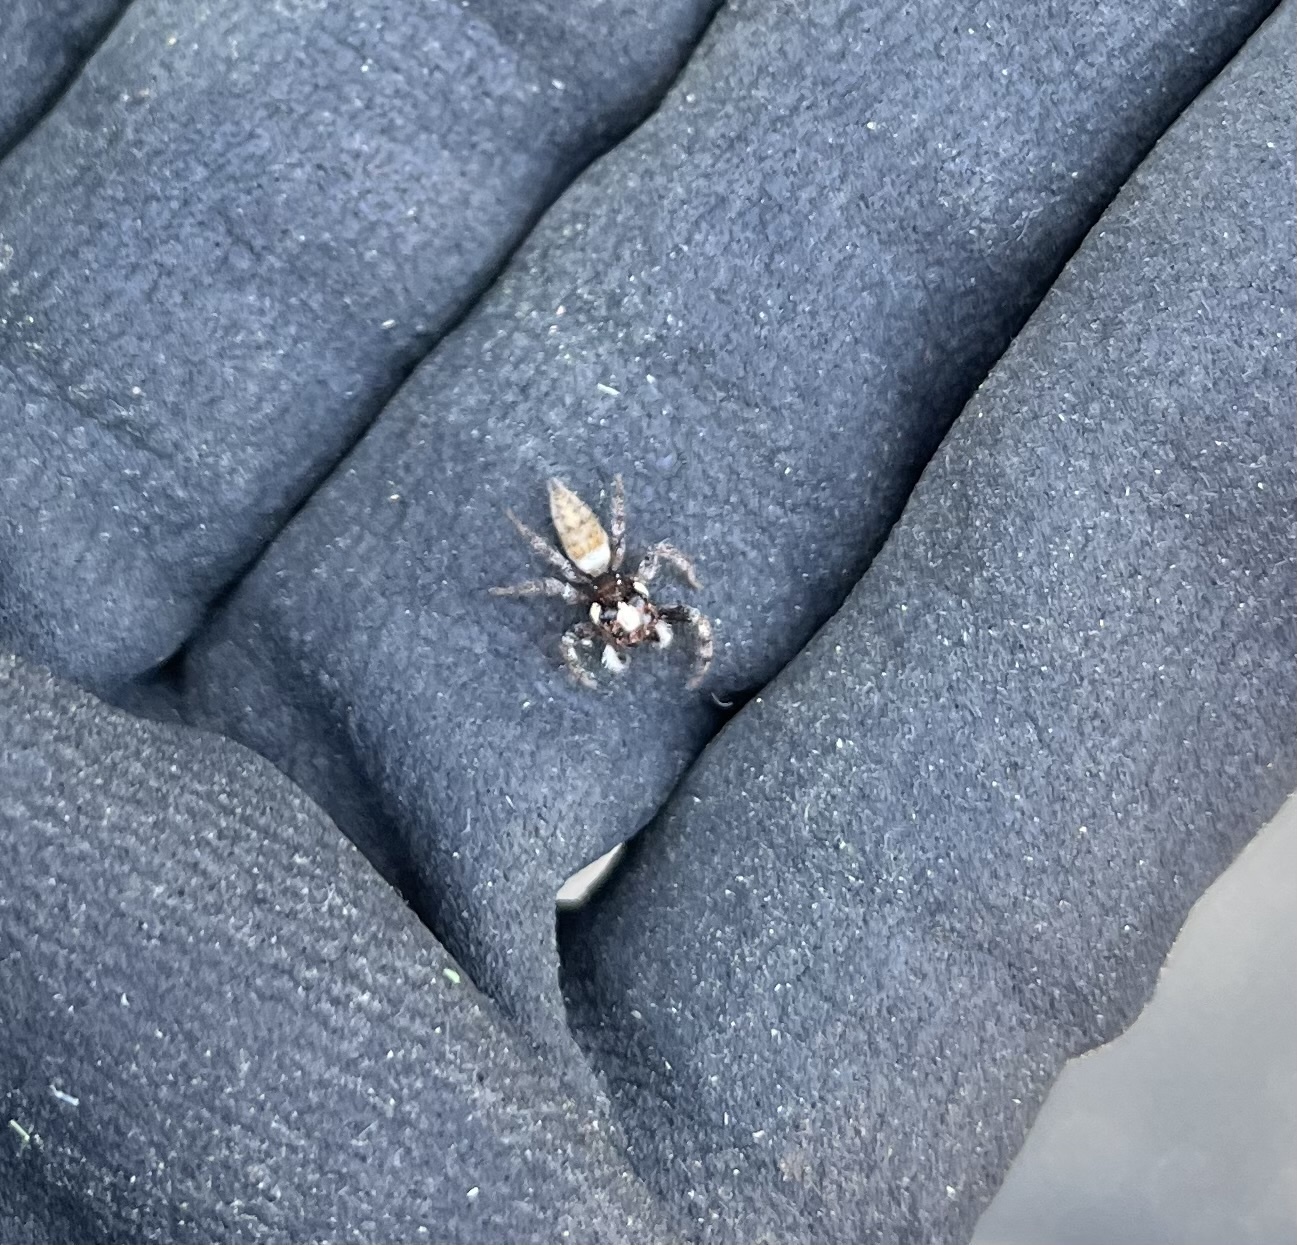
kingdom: Animalia
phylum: Arthropoda
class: Arachnida
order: Araneae
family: Salticidae
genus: Colonus
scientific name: Colonus hesperus
